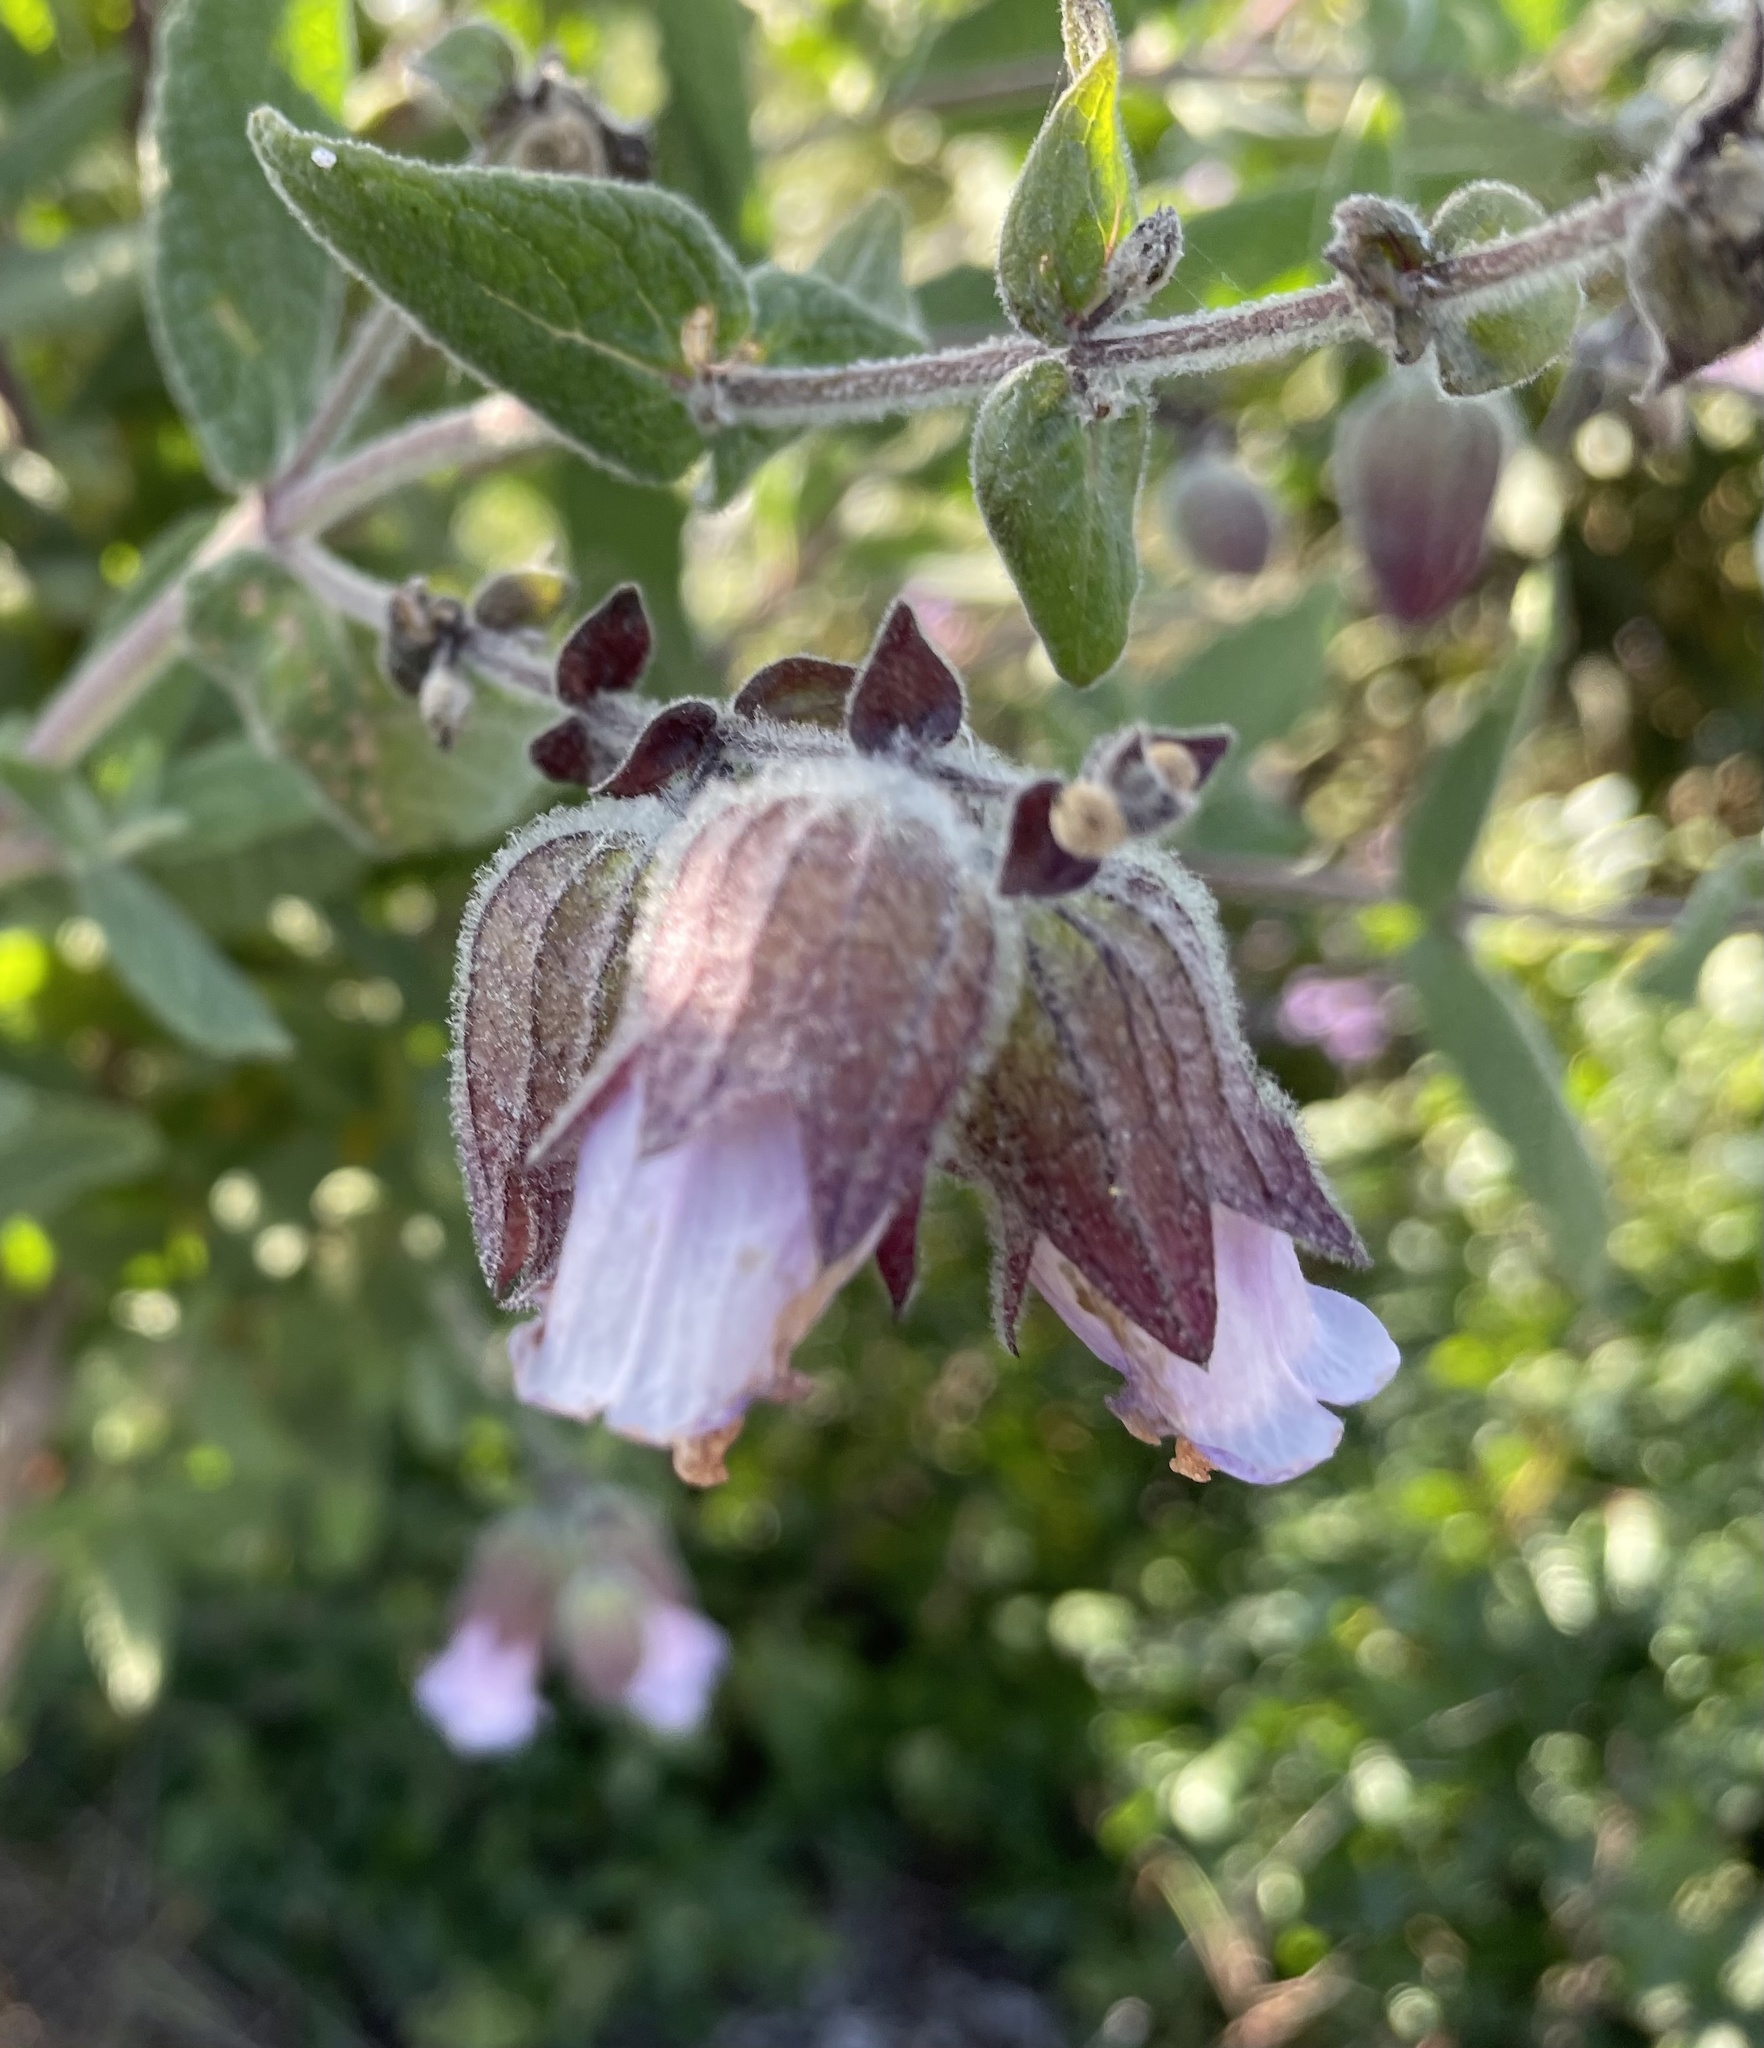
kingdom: Plantae
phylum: Tracheophyta
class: Magnoliopsida
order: Lamiales
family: Lamiaceae
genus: Lepechinia
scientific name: Lepechinia calycina
